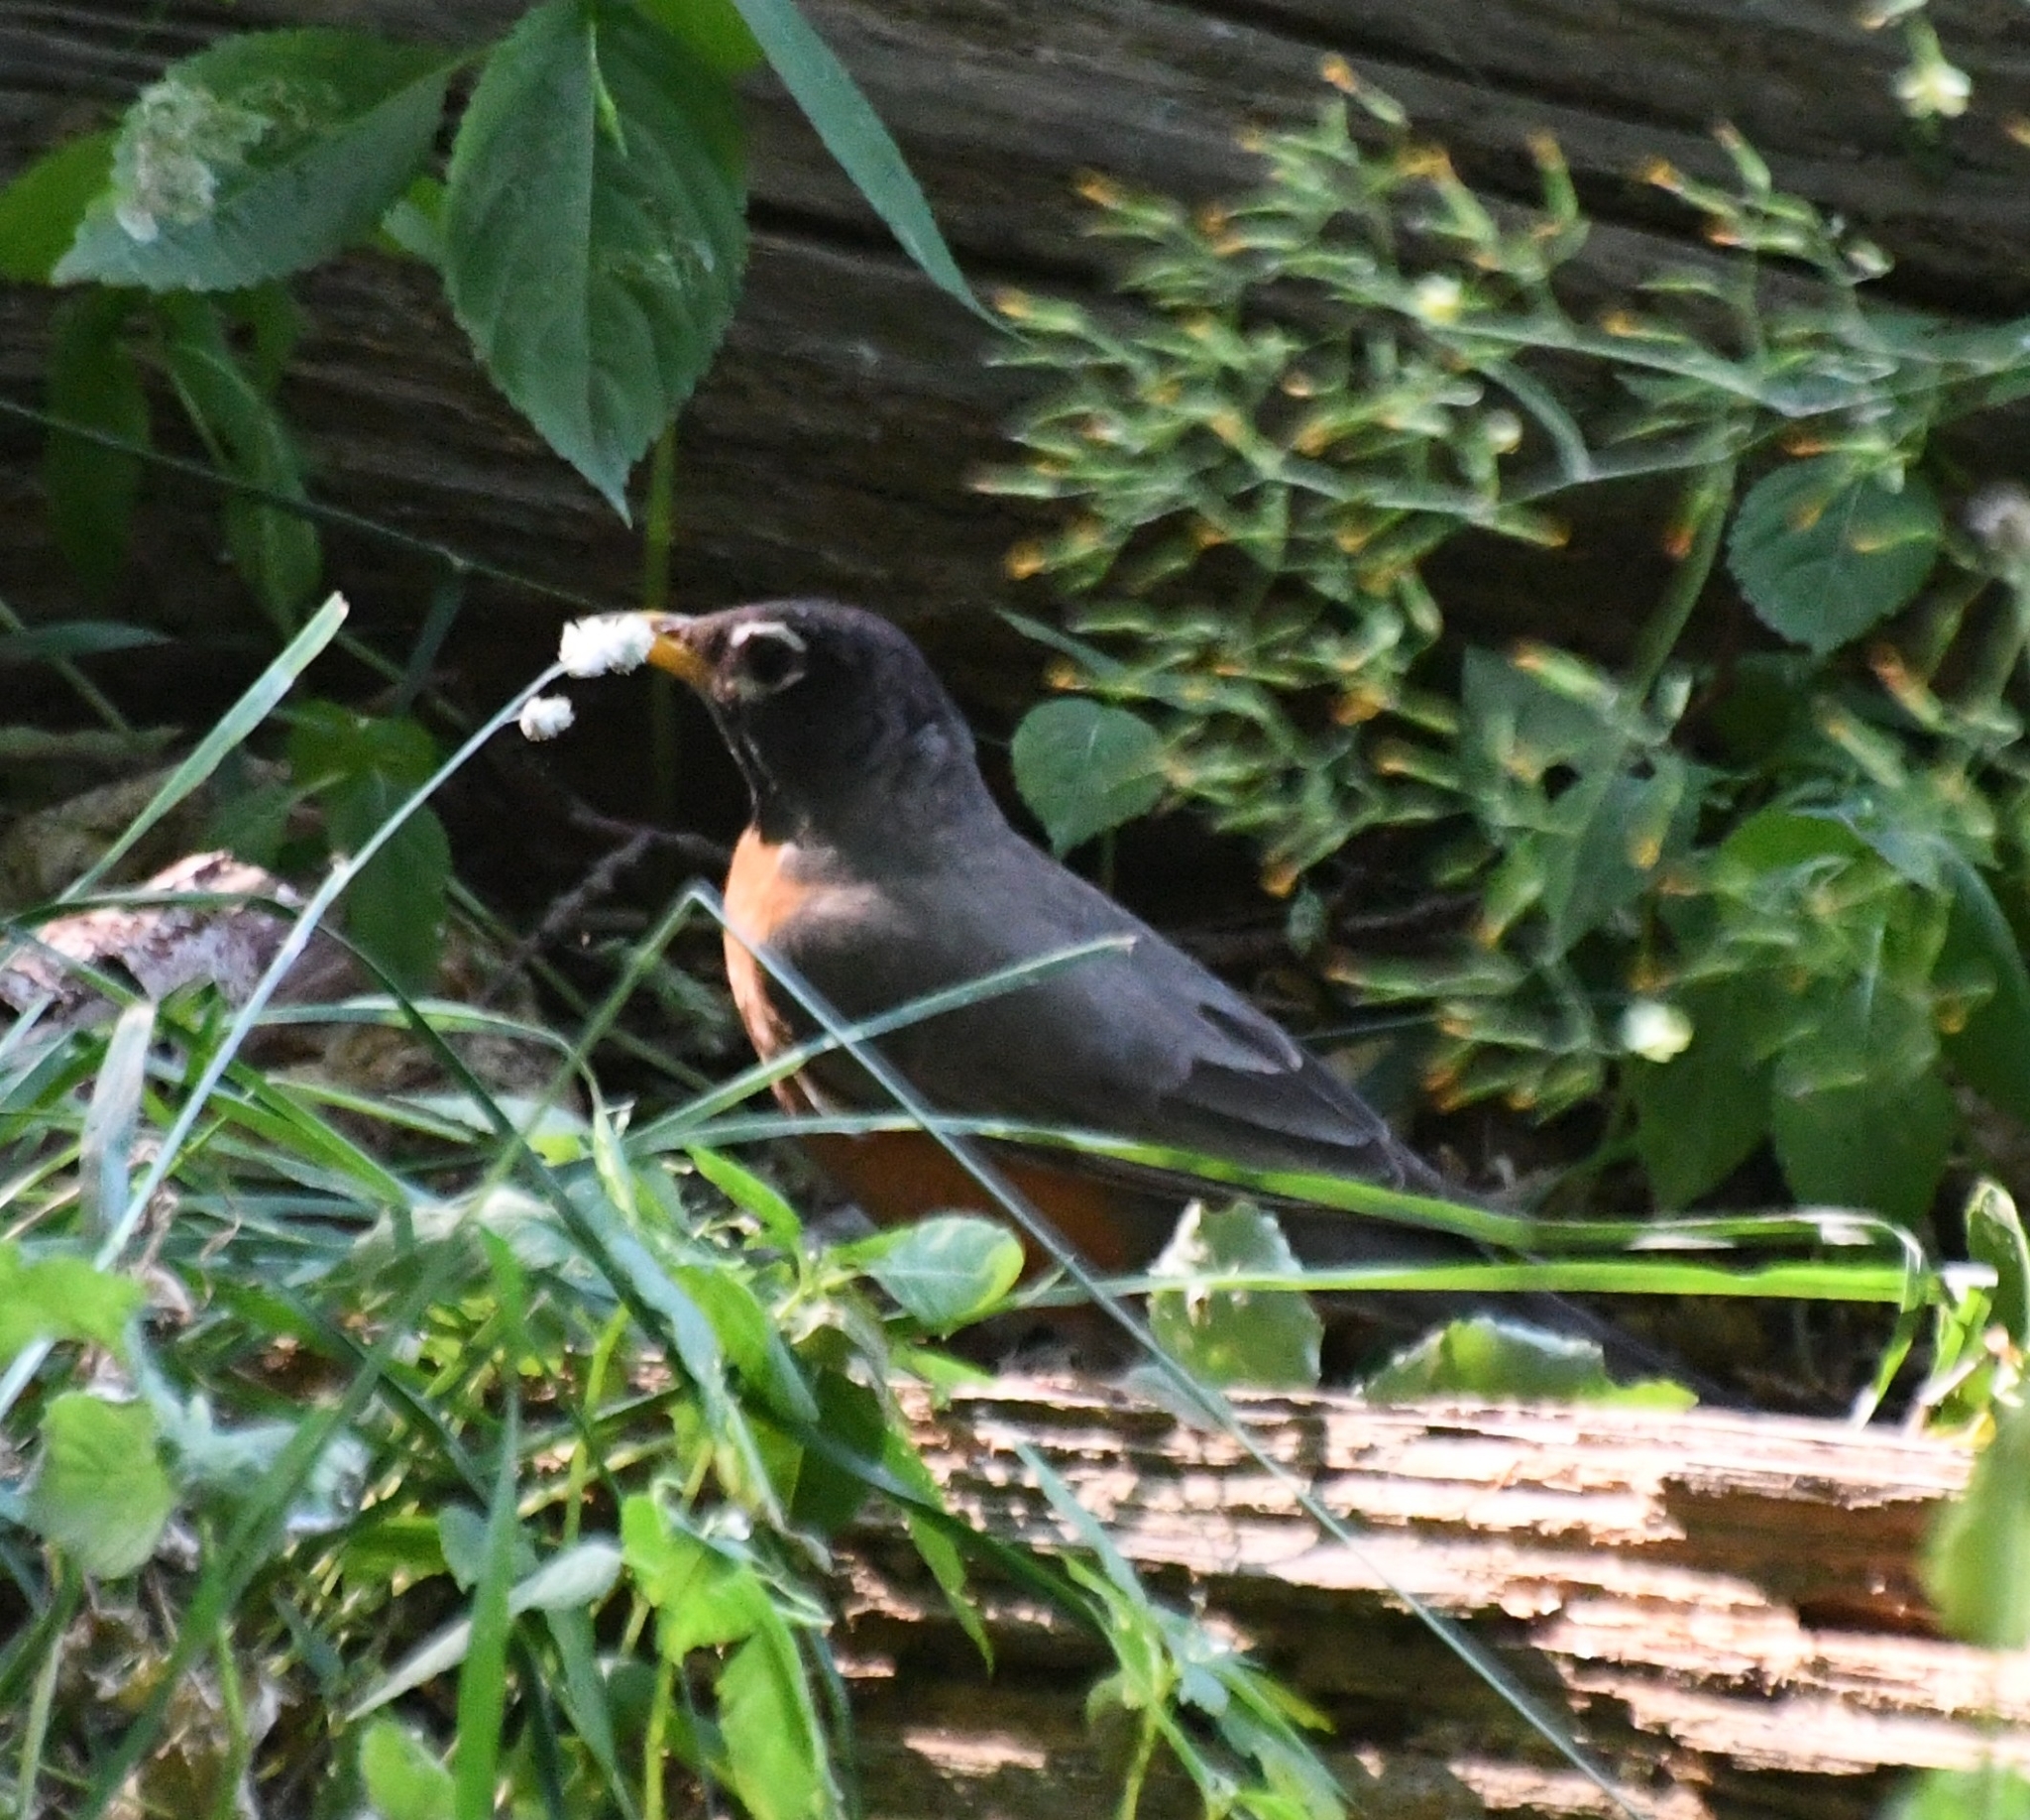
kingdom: Animalia
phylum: Chordata
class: Aves
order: Passeriformes
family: Turdidae
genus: Turdus
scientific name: Turdus migratorius
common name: American robin
